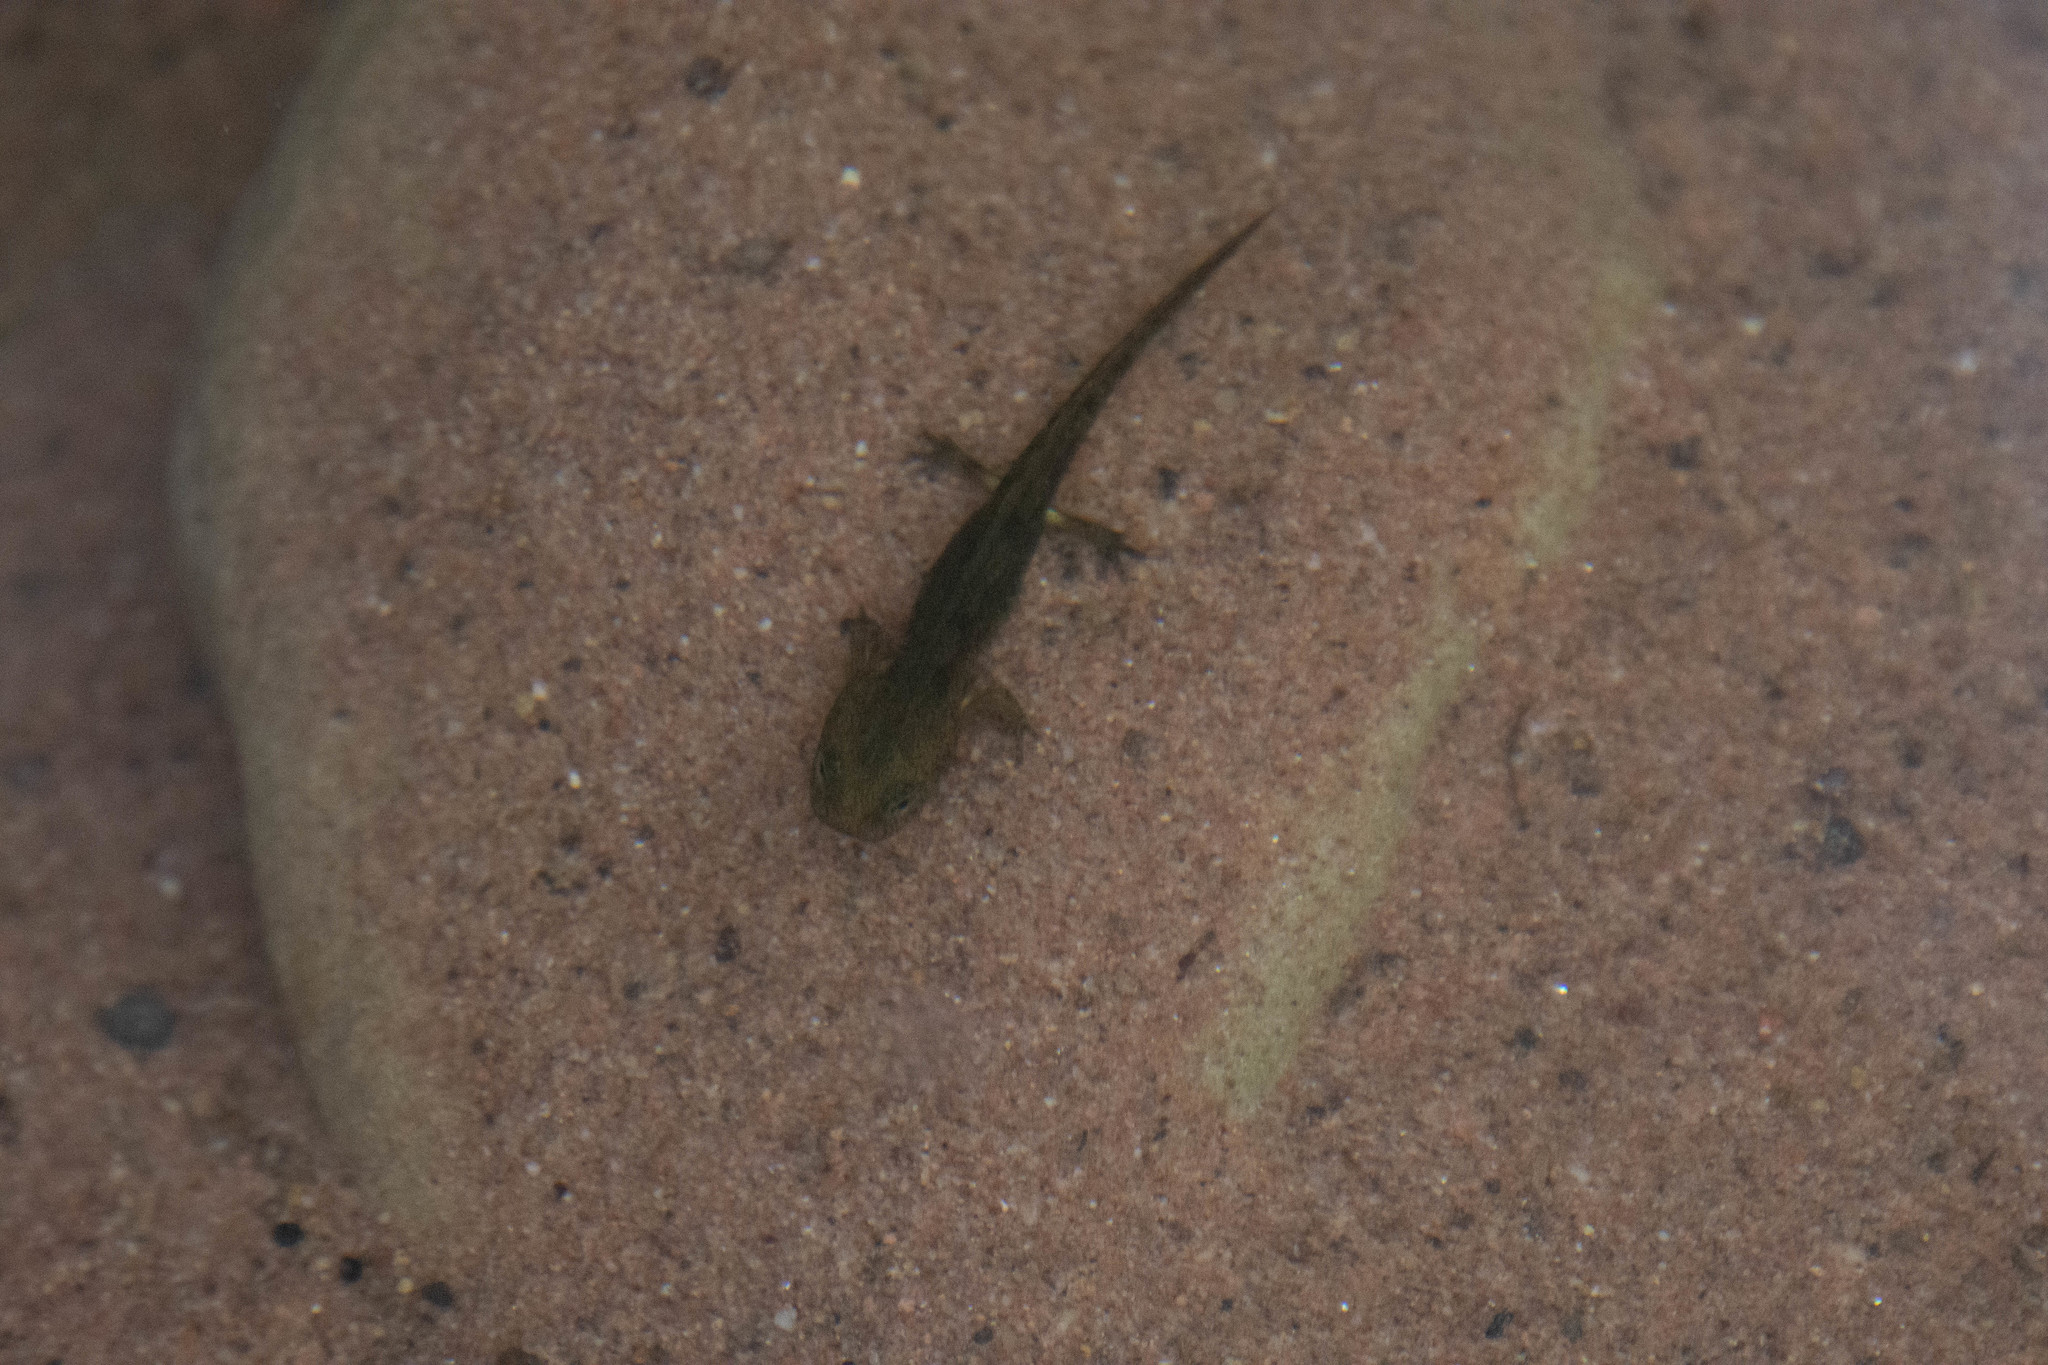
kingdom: Animalia
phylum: Chordata
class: Amphibia
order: Caudata
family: Salamandridae
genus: Salamandra
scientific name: Salamandra salamandra
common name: Fire salamander
